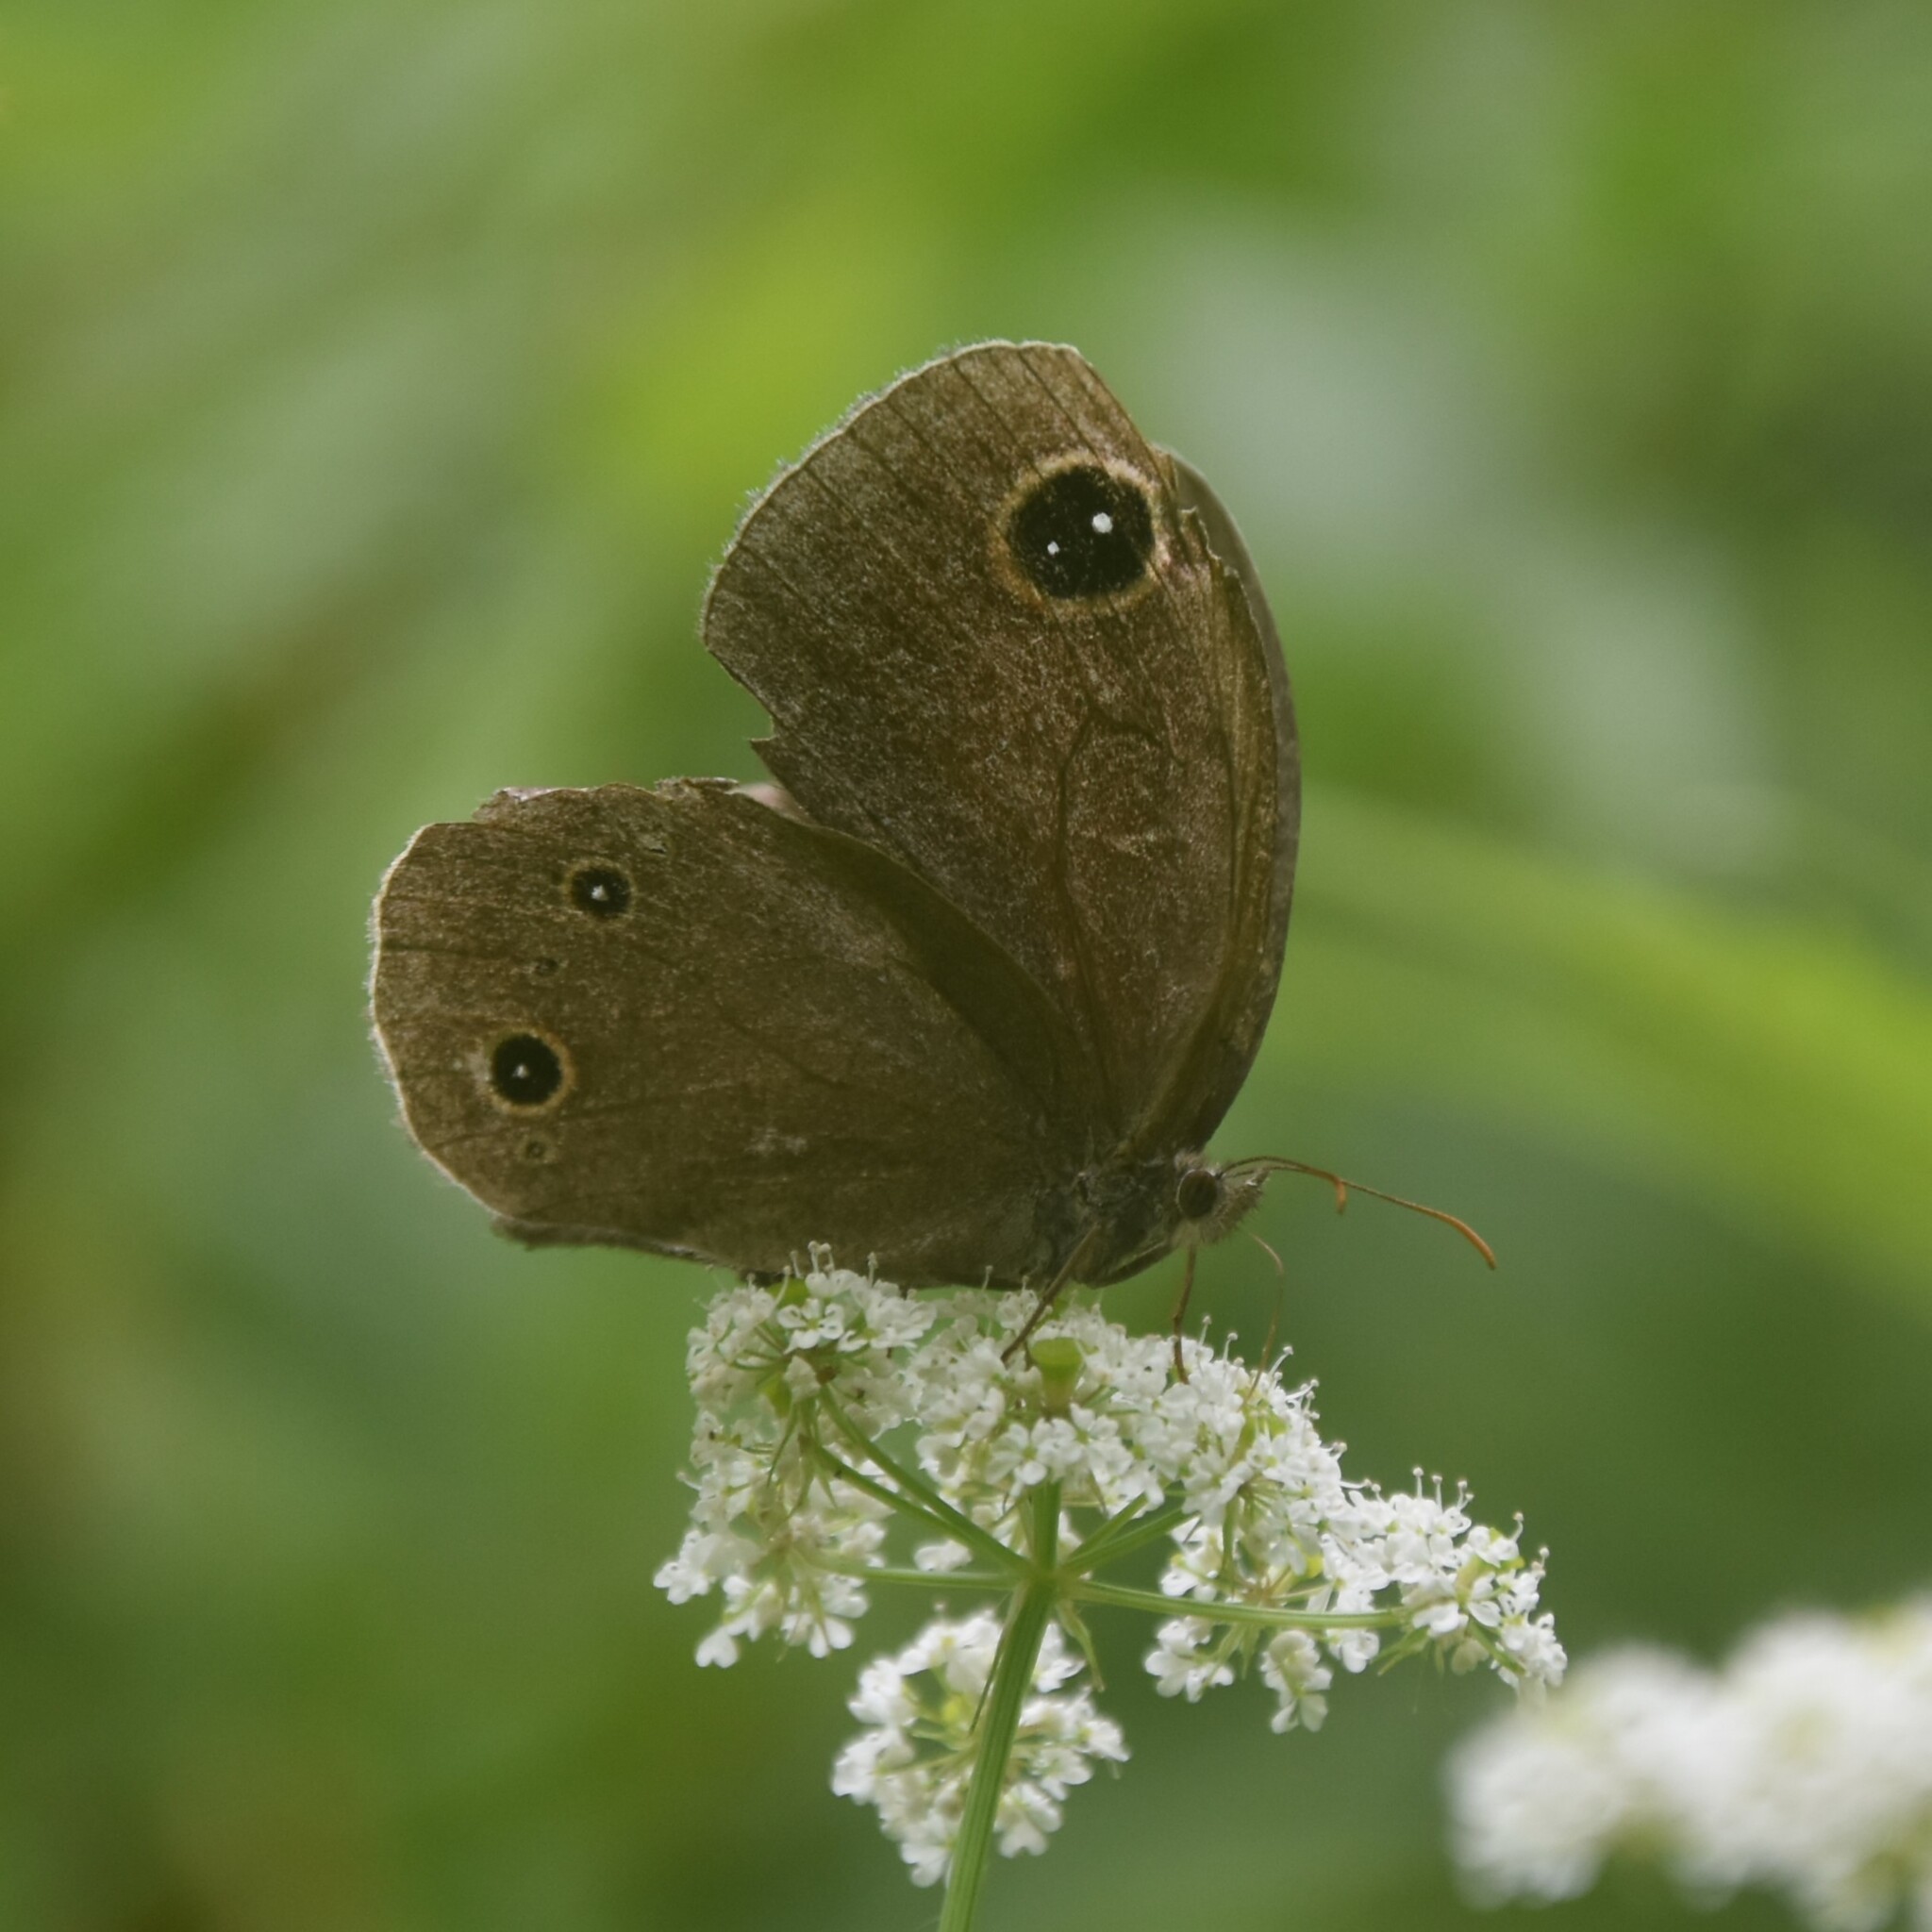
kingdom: Animalia
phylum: Arthropoda
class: Insecta
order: Lepidoptera
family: Nymphalidae
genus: Callerebia
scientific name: Callerebia nirmala
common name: Common argus
